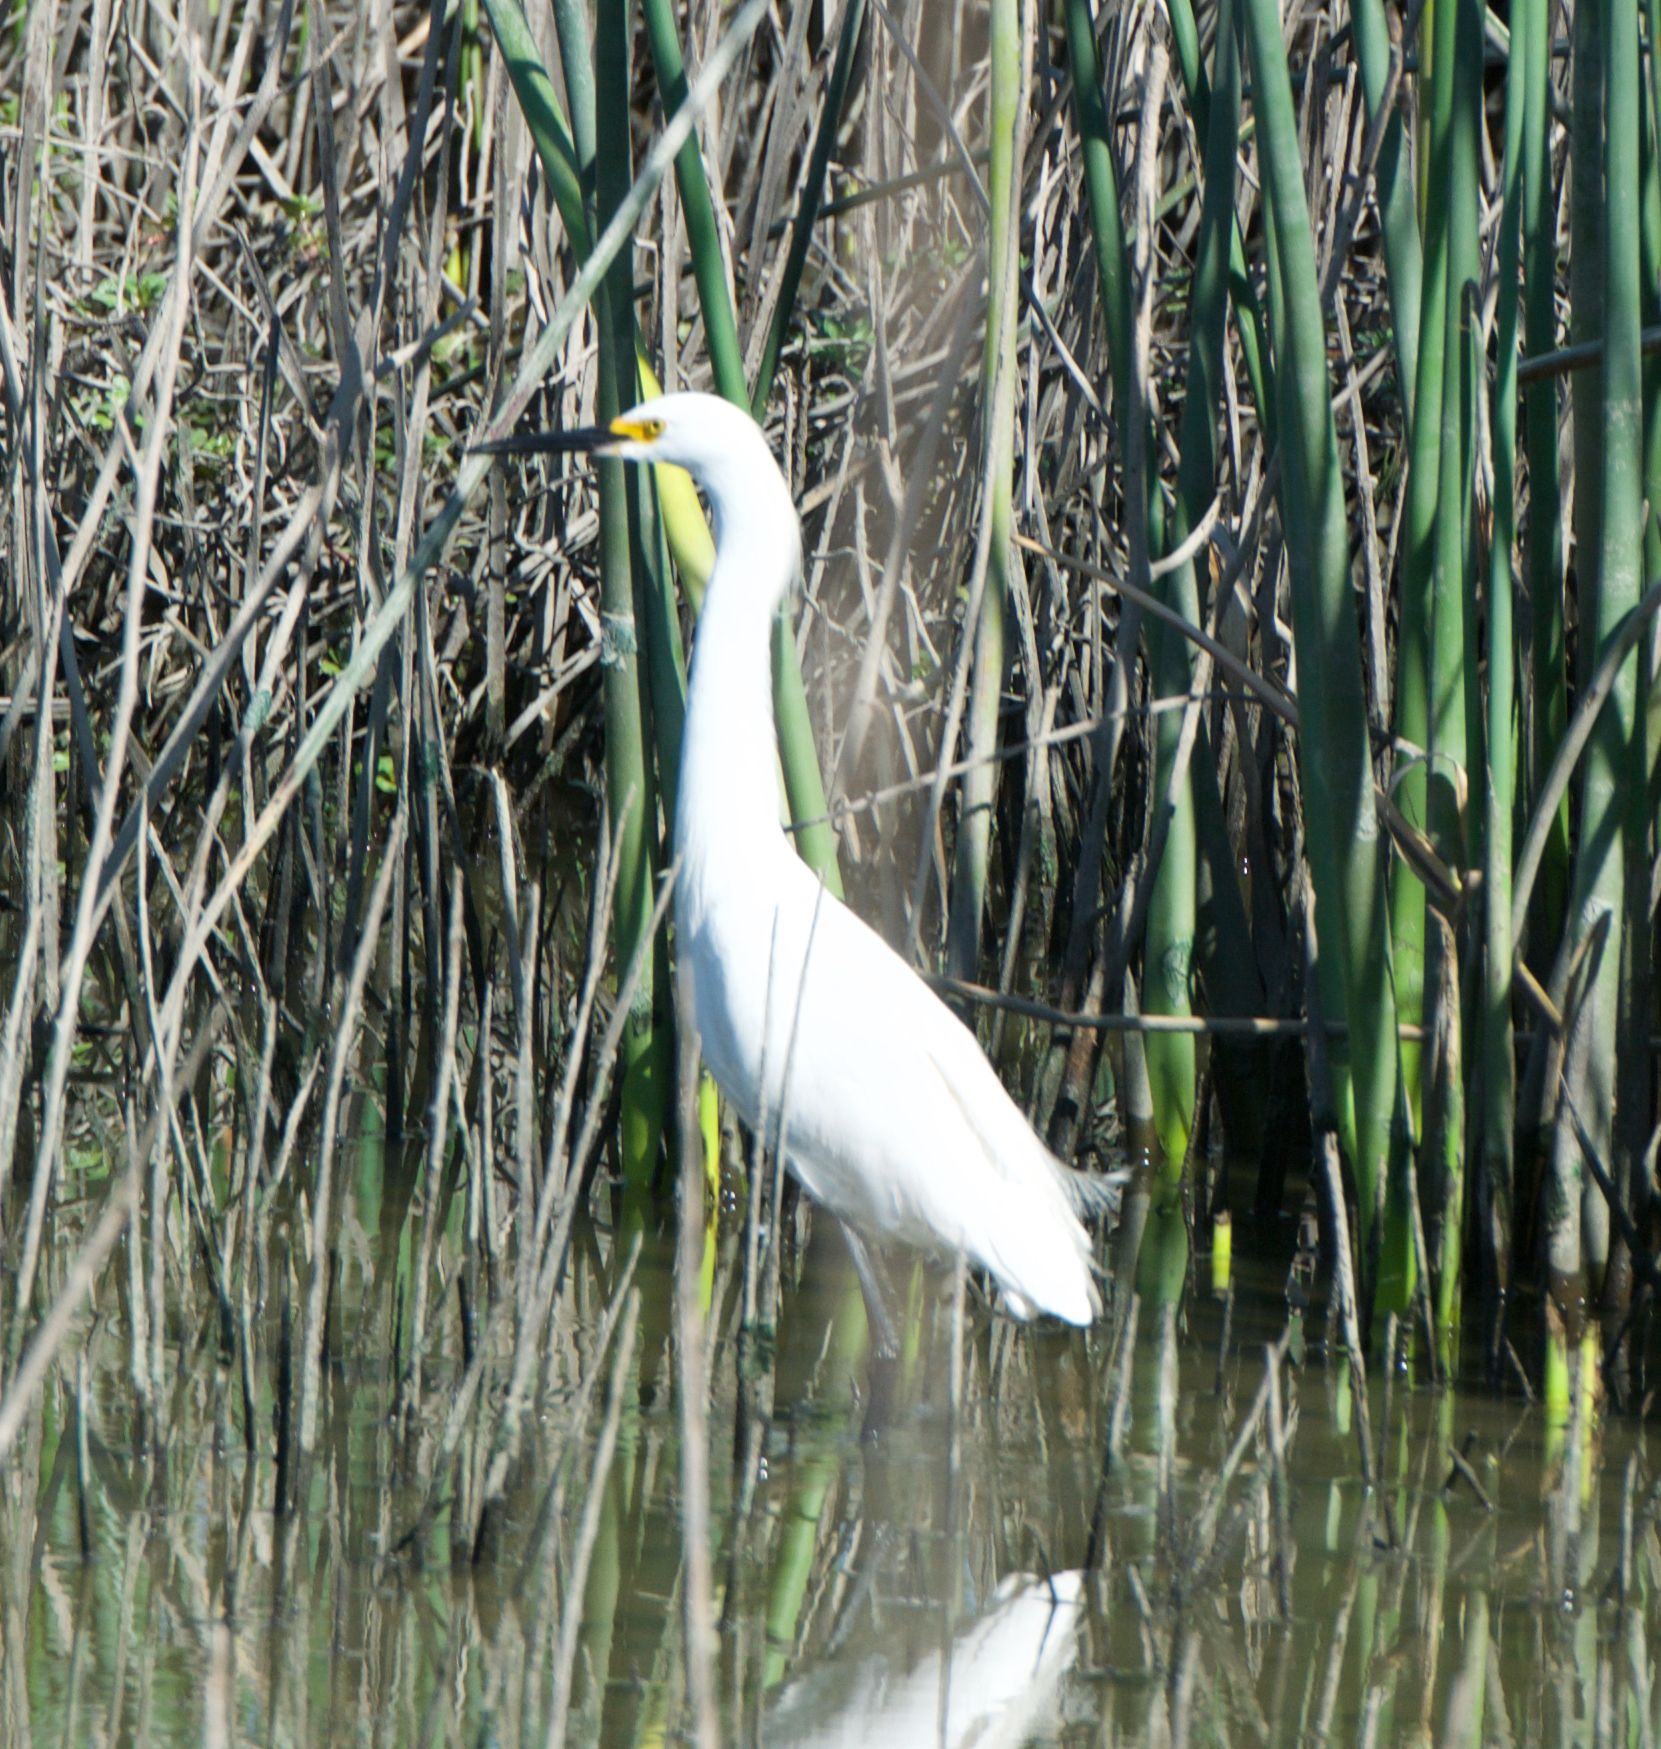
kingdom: Animalia
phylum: Chordata
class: Aves
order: Pelecaniformes
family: Ardeidae
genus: Egretta
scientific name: Egretta thula
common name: Snowy egret
